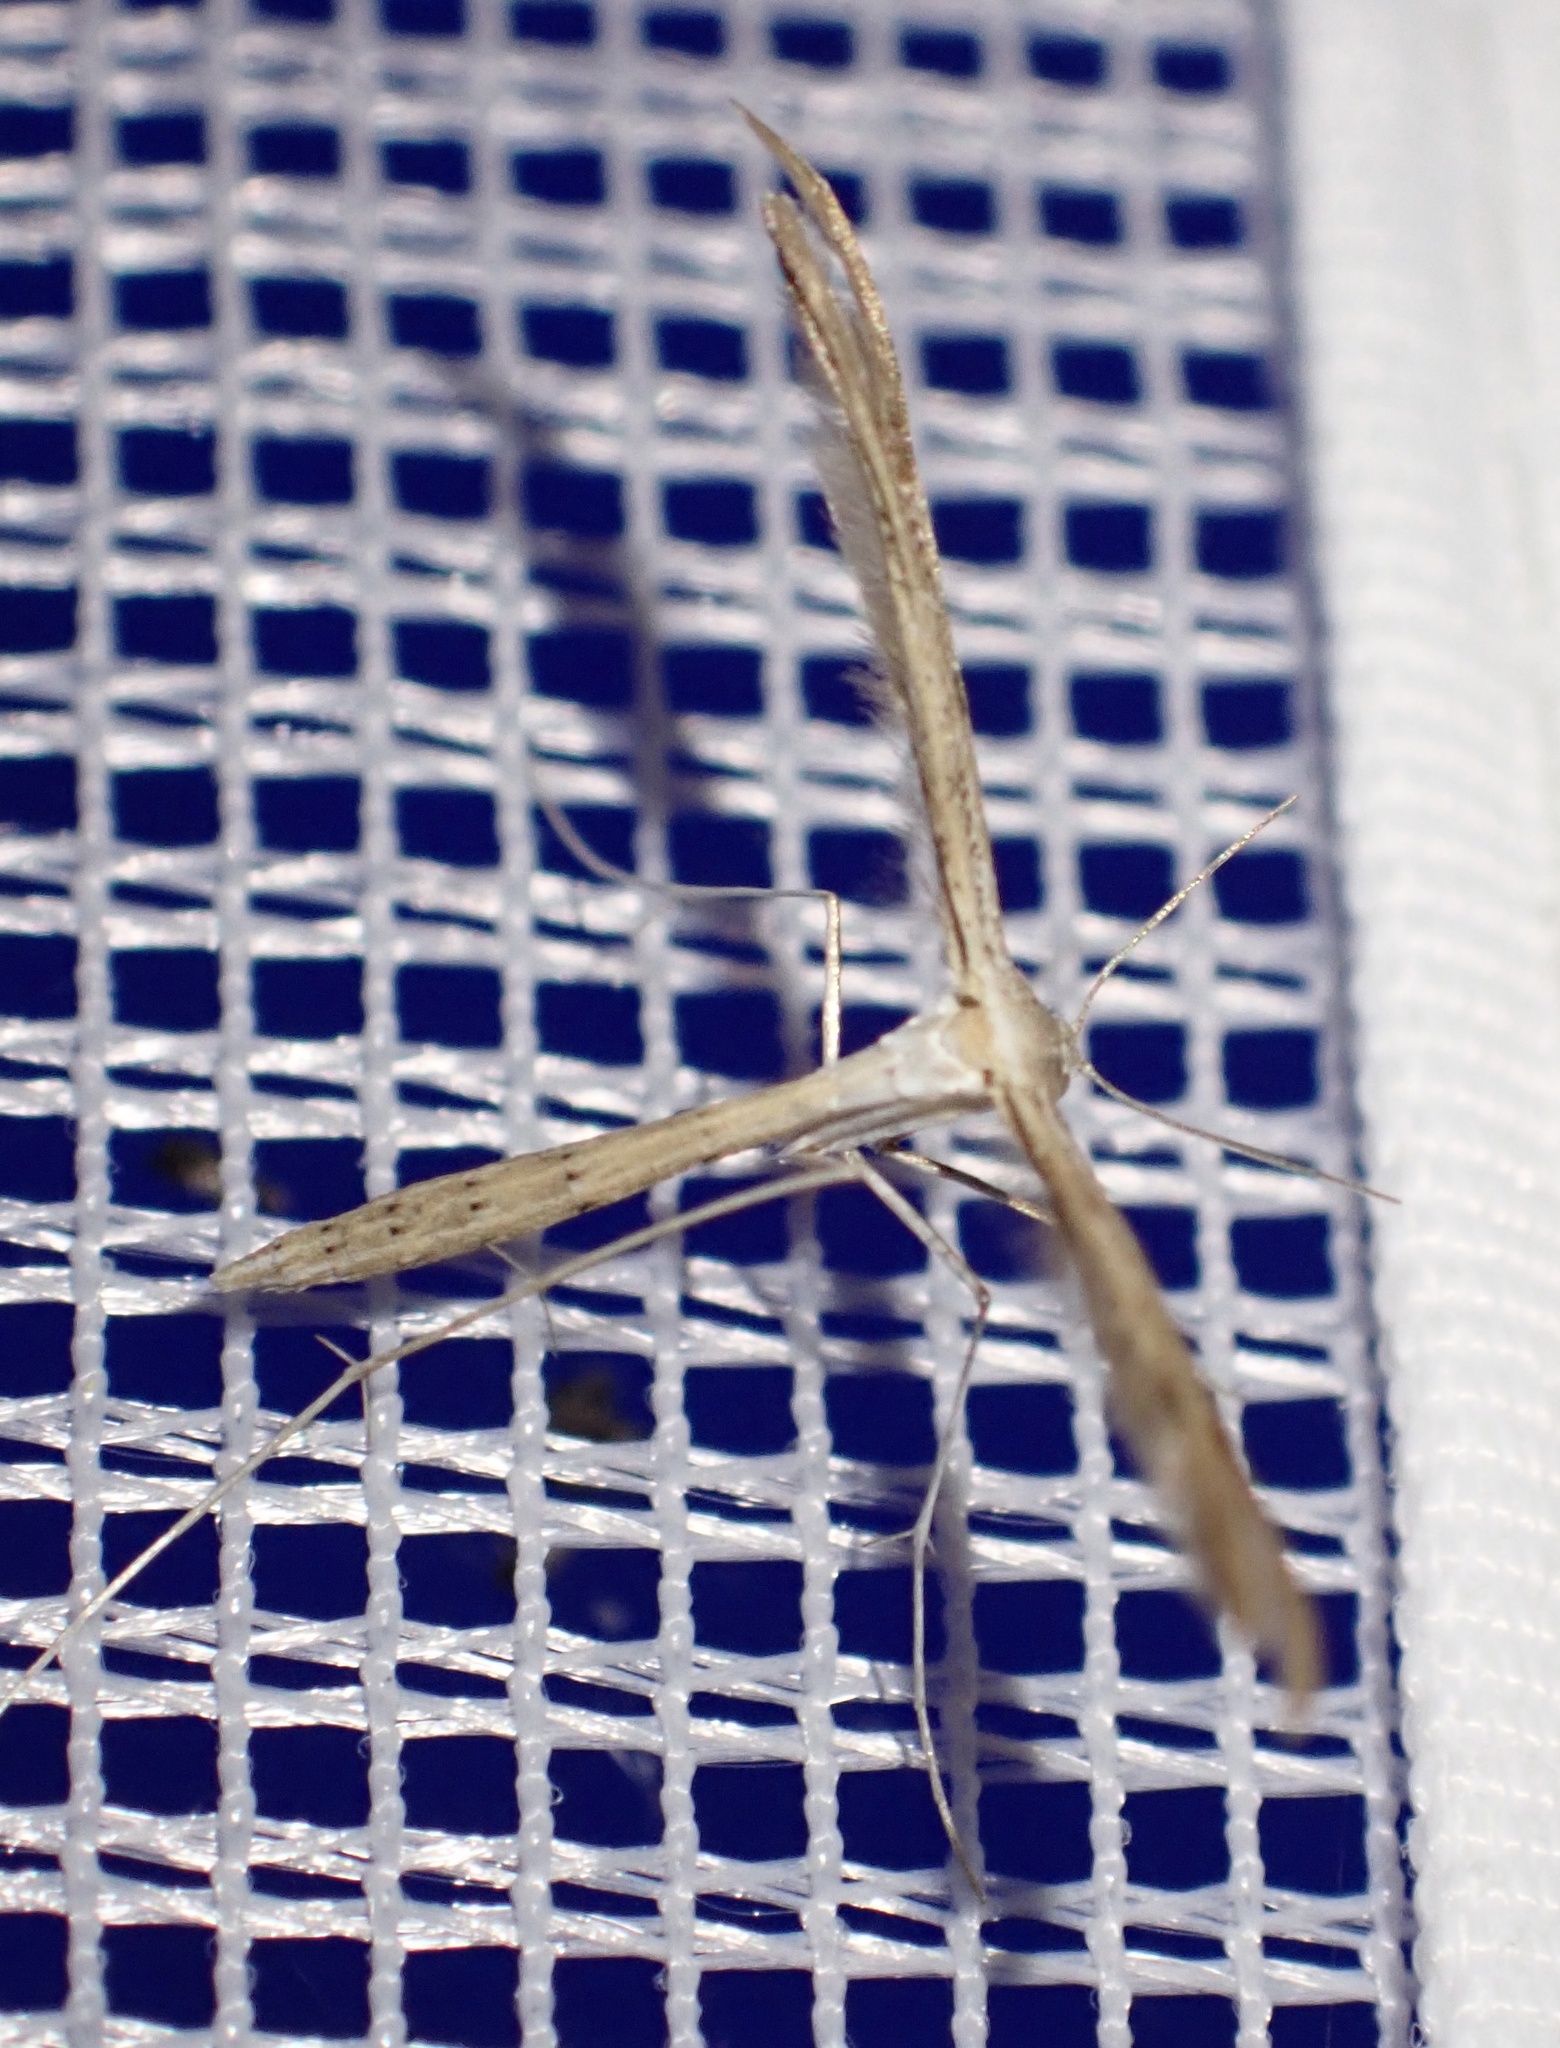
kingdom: Animalia
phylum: Arthropoda
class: Insecta
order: Lepidoptera
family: Pterophoridae
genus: Emmelina
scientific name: Emmelina monodactyla
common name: Common plume
